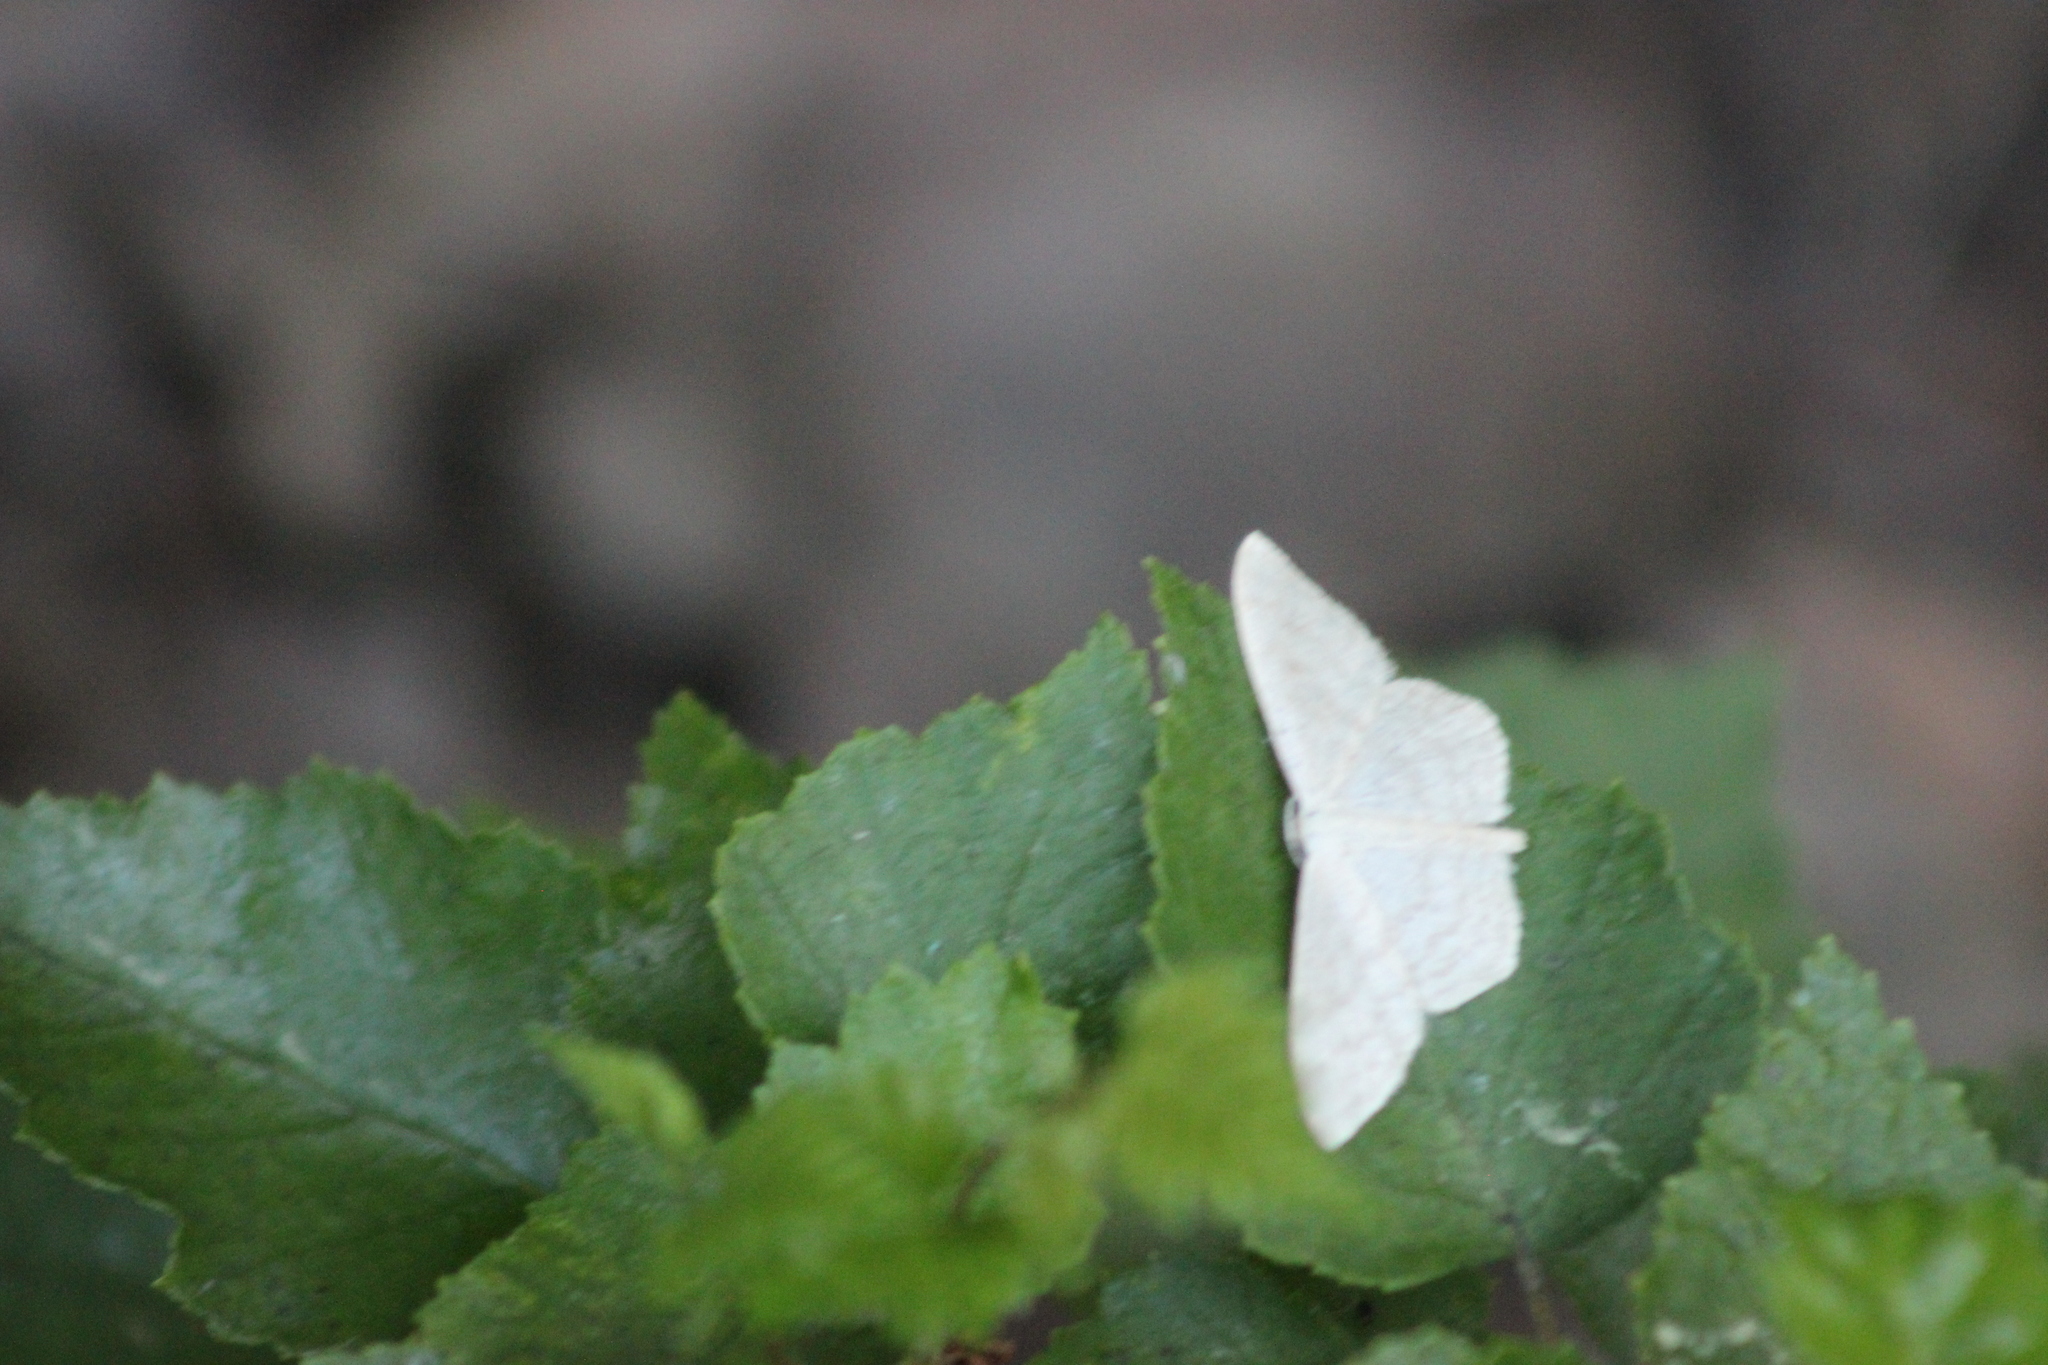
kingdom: Animalia
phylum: Arthropoda
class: Insecta
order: Lepidoptera
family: Geometridae
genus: Scopula
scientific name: Scopula floslactata
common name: Cream wave
